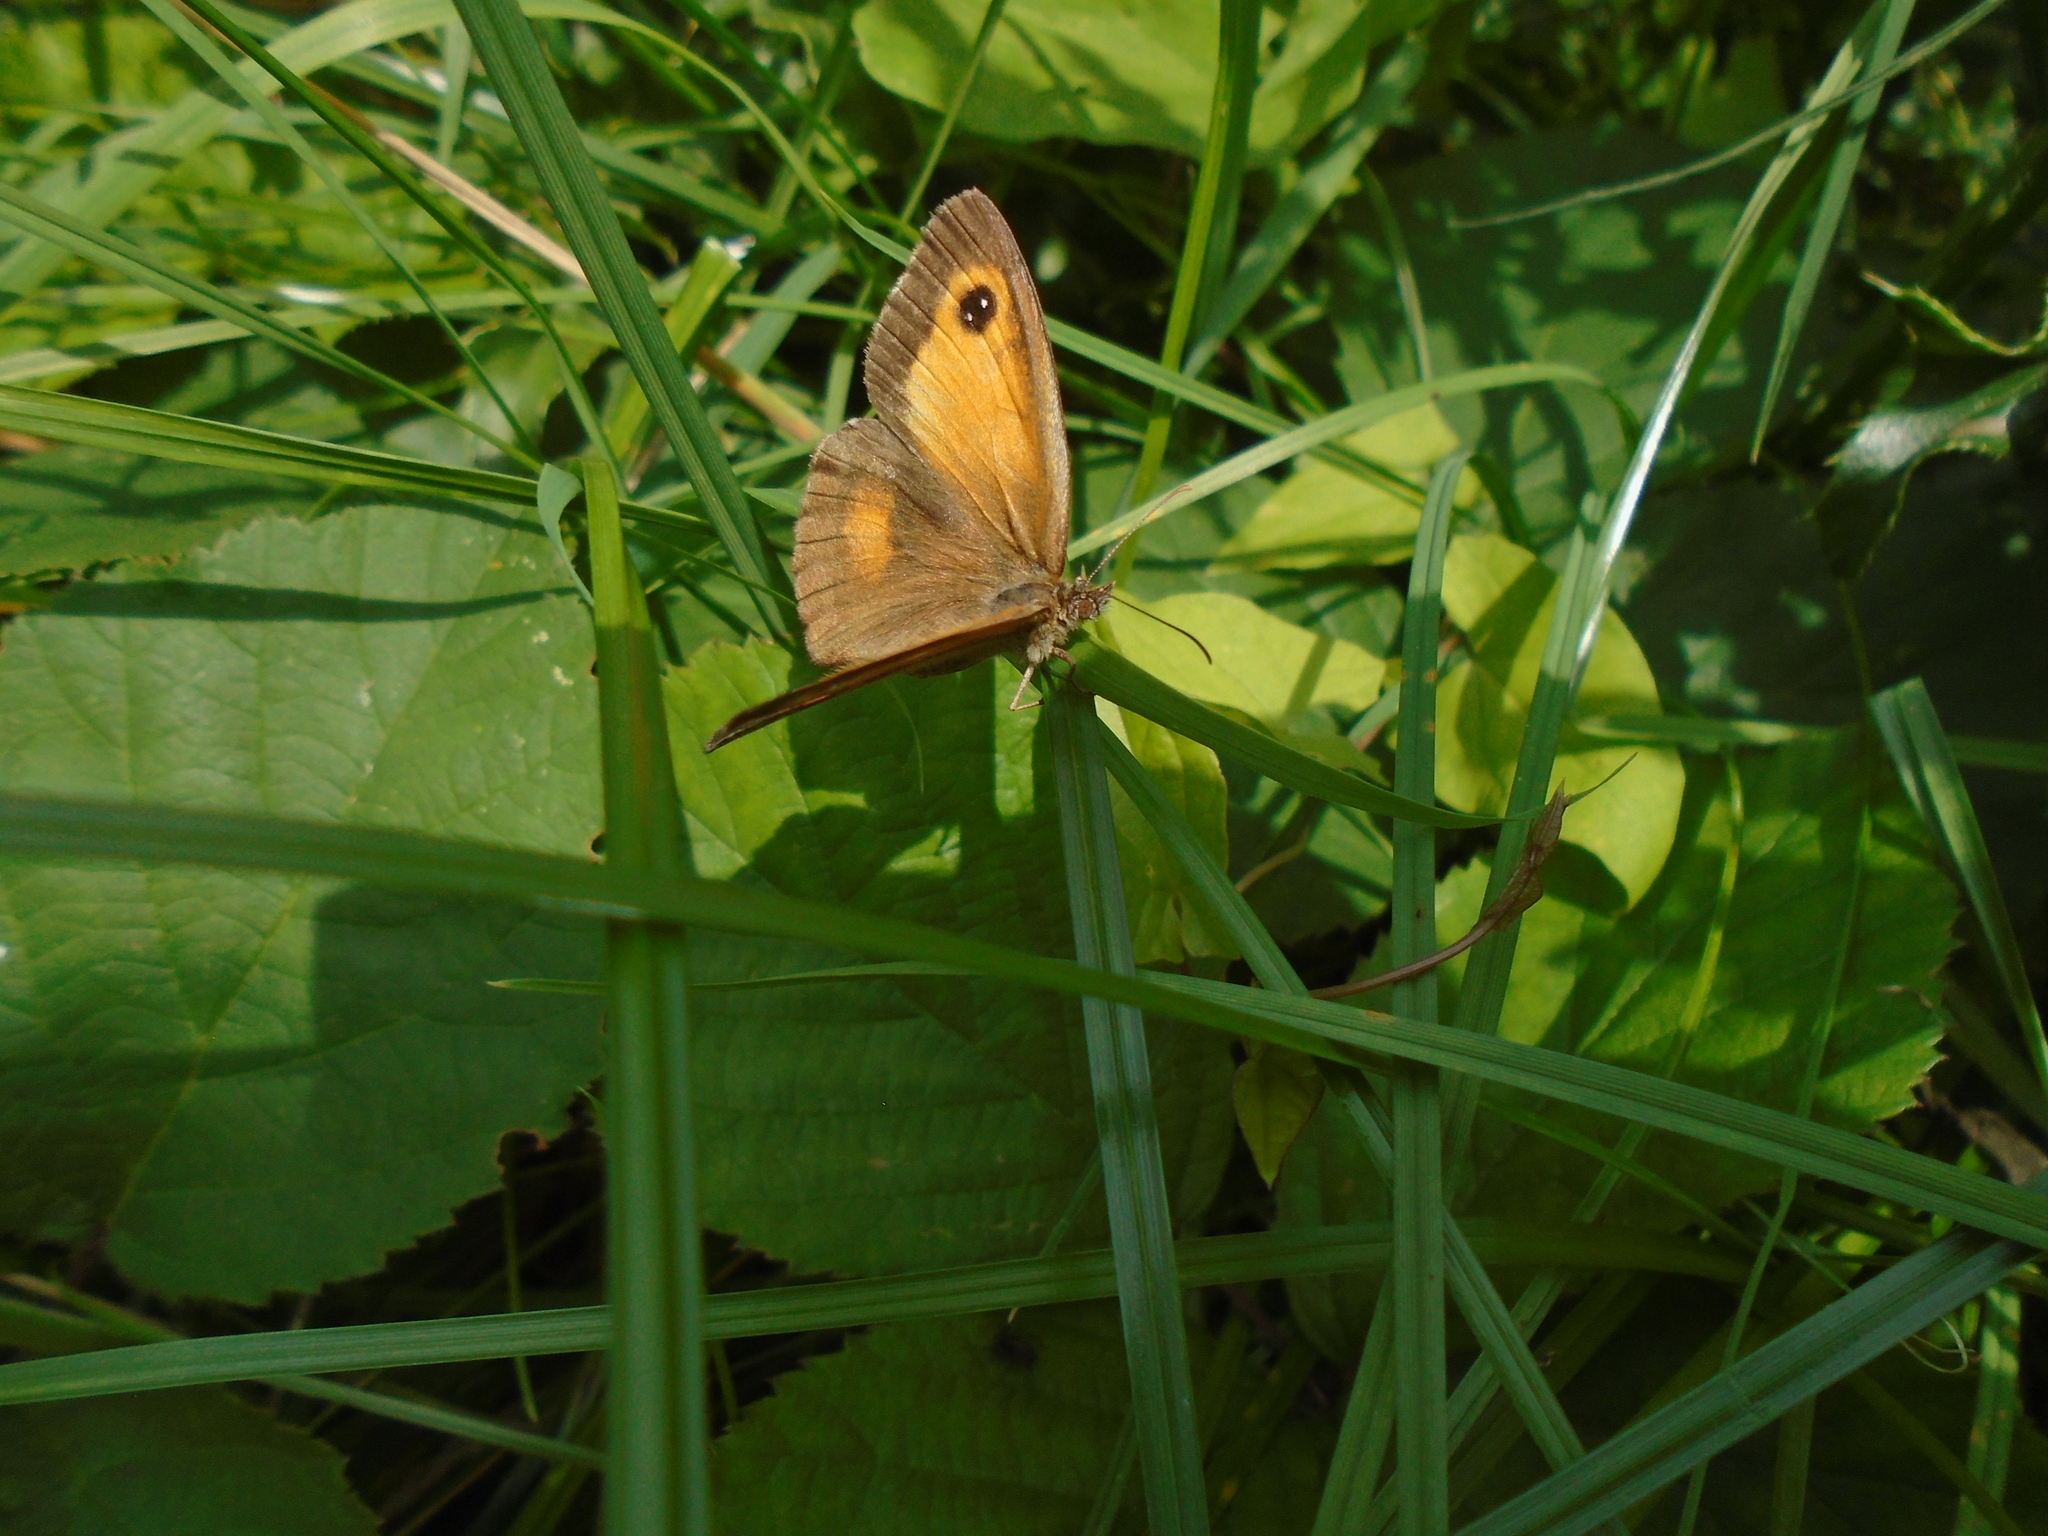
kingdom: Animalia
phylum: Arthropoda
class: Insecta
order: Lepidoptera
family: Nymphalidae
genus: Pyronia
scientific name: Pyronia tithonus
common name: Gatekeeper
